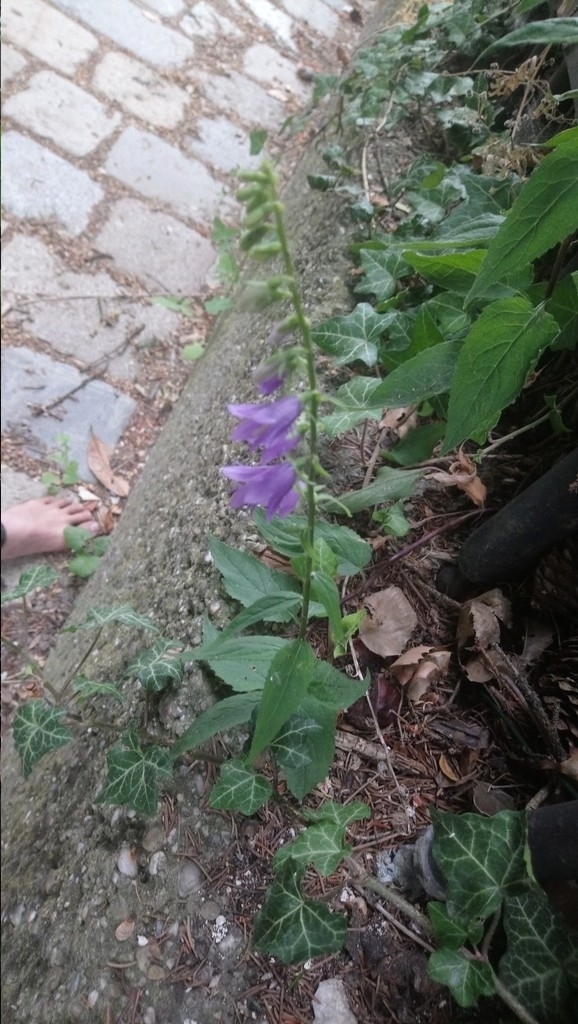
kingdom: Plantae
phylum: Tracheophyta
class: Magnoliopsida
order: Asterales
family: Campanulaceae
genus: Campanula
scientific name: Campanula rapunculoides
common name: Creeping bellflower
